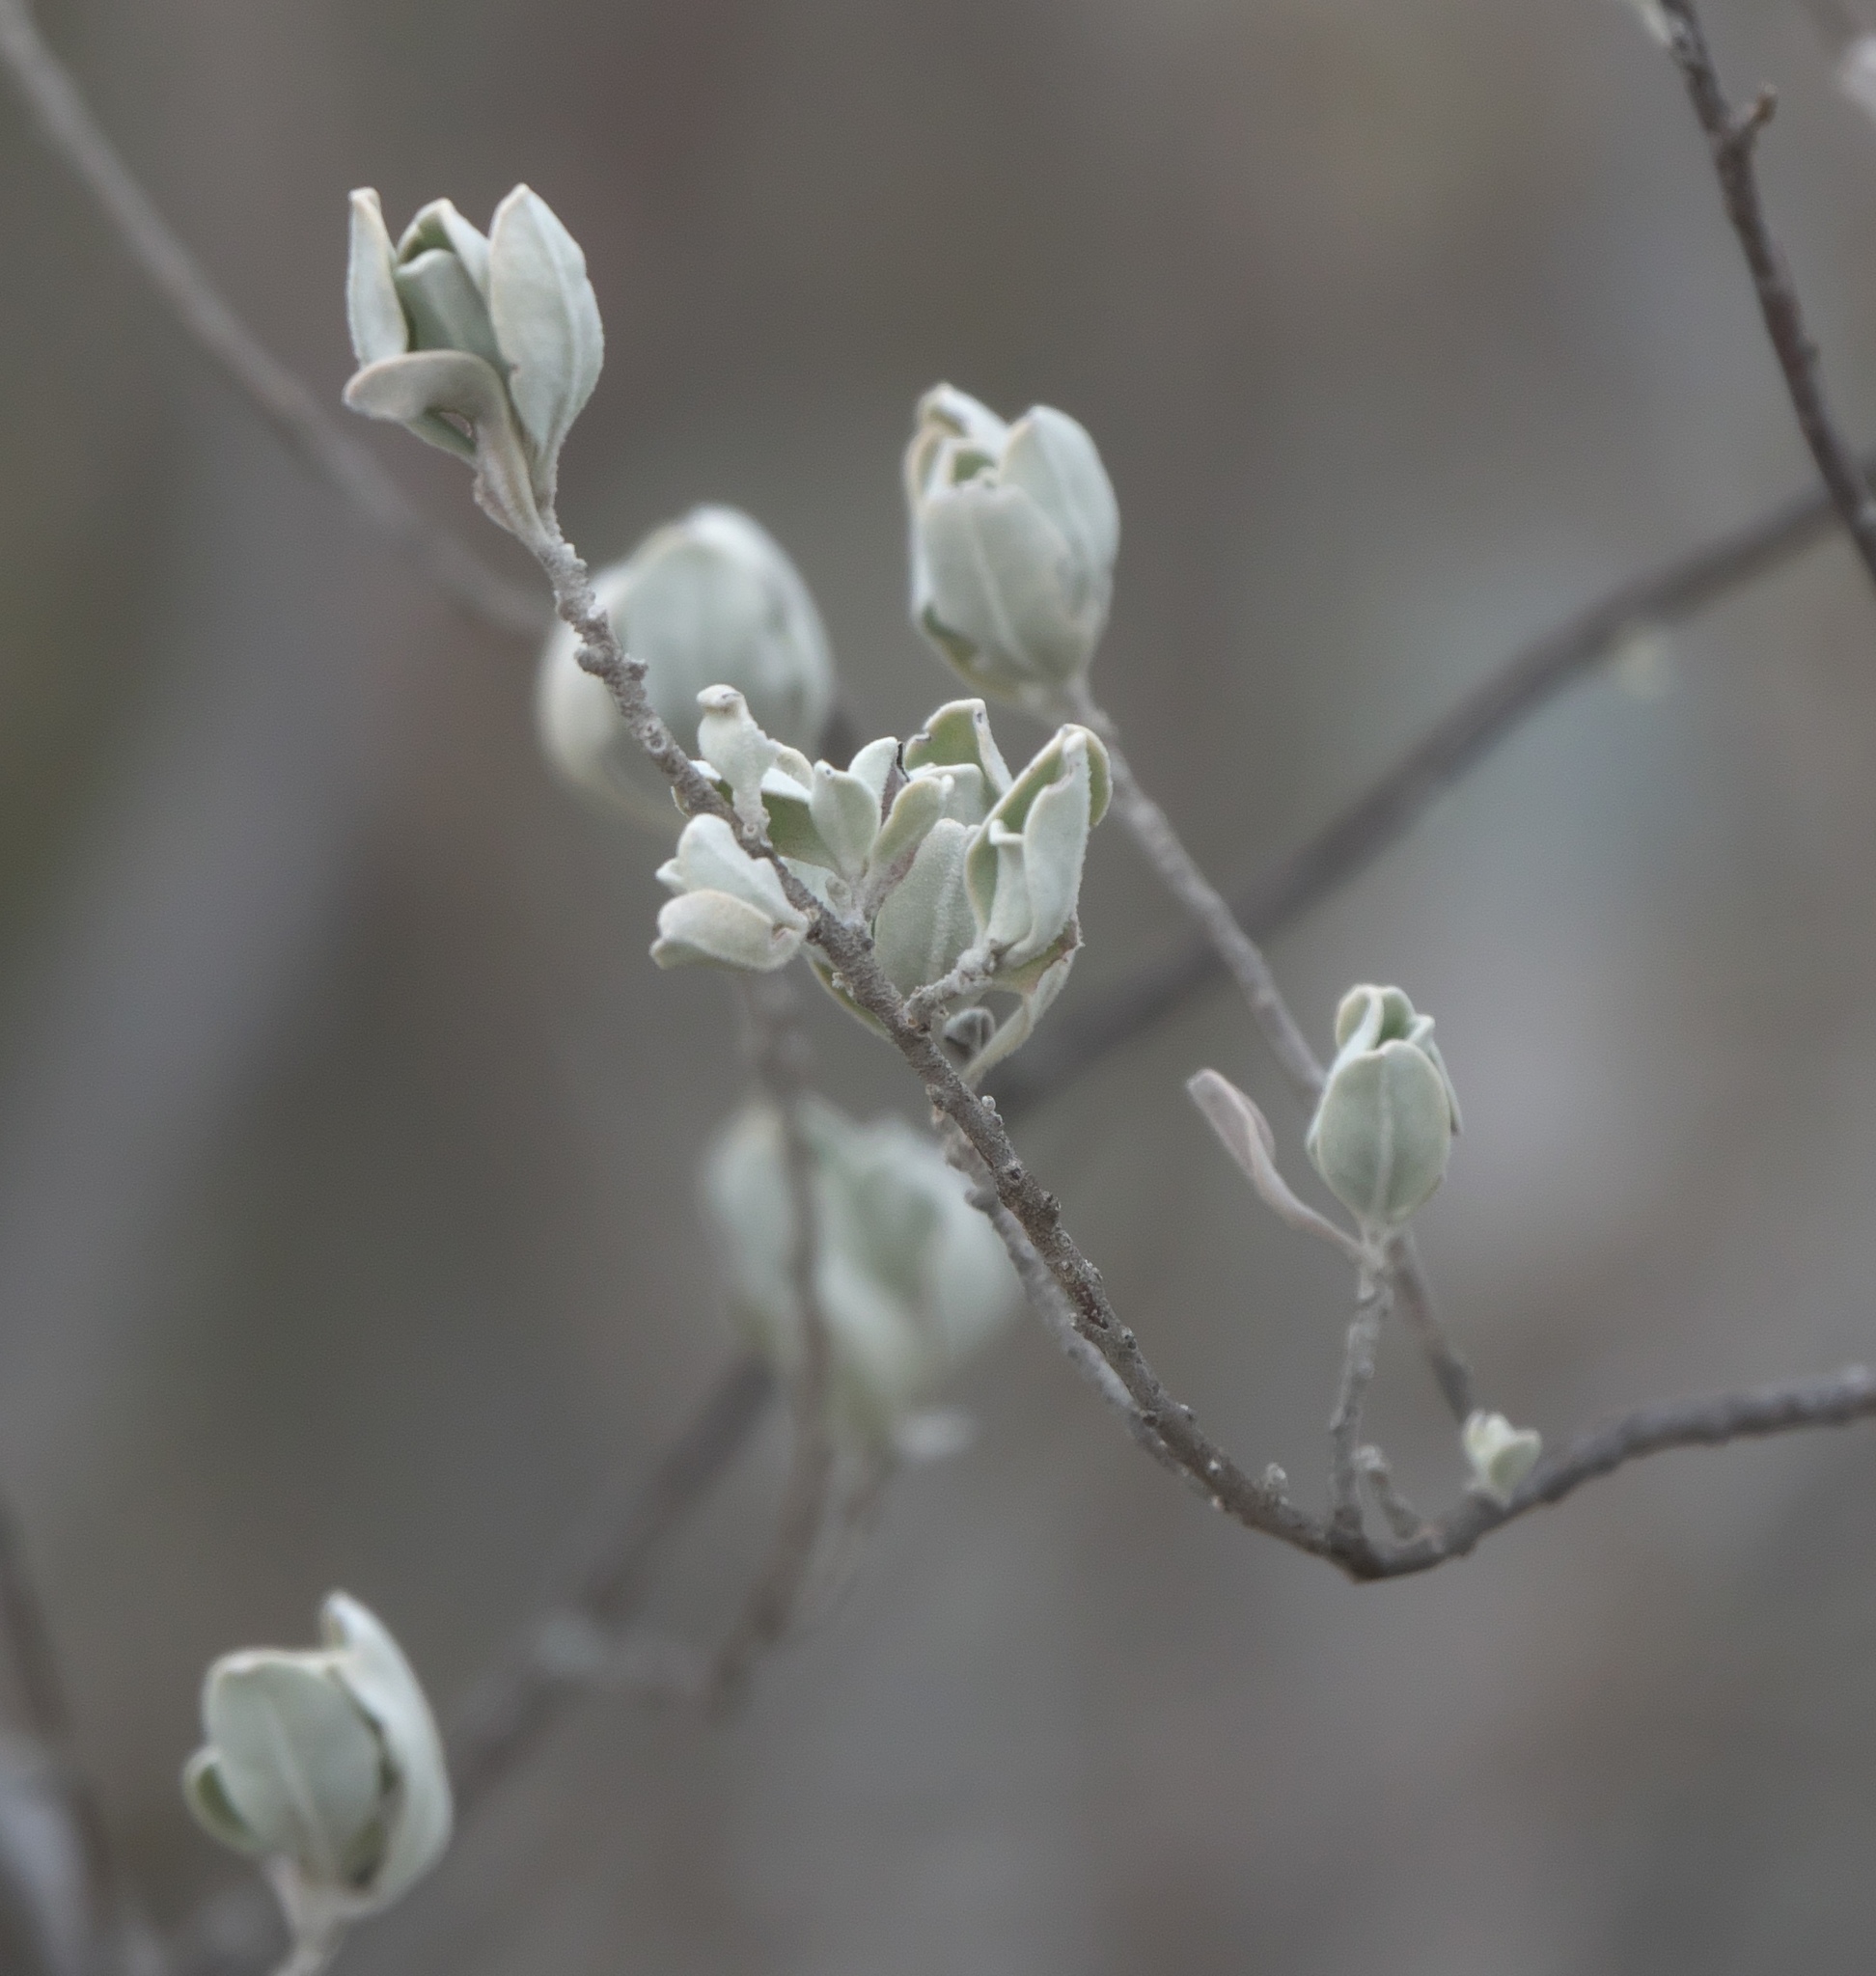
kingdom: Plantae
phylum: Tracheophyta
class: Magnoliopsida
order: Lamiales
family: Scrophulariaceae
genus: Leucophyllum
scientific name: Leucophyllum frutescens
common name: Texas silverleaf
